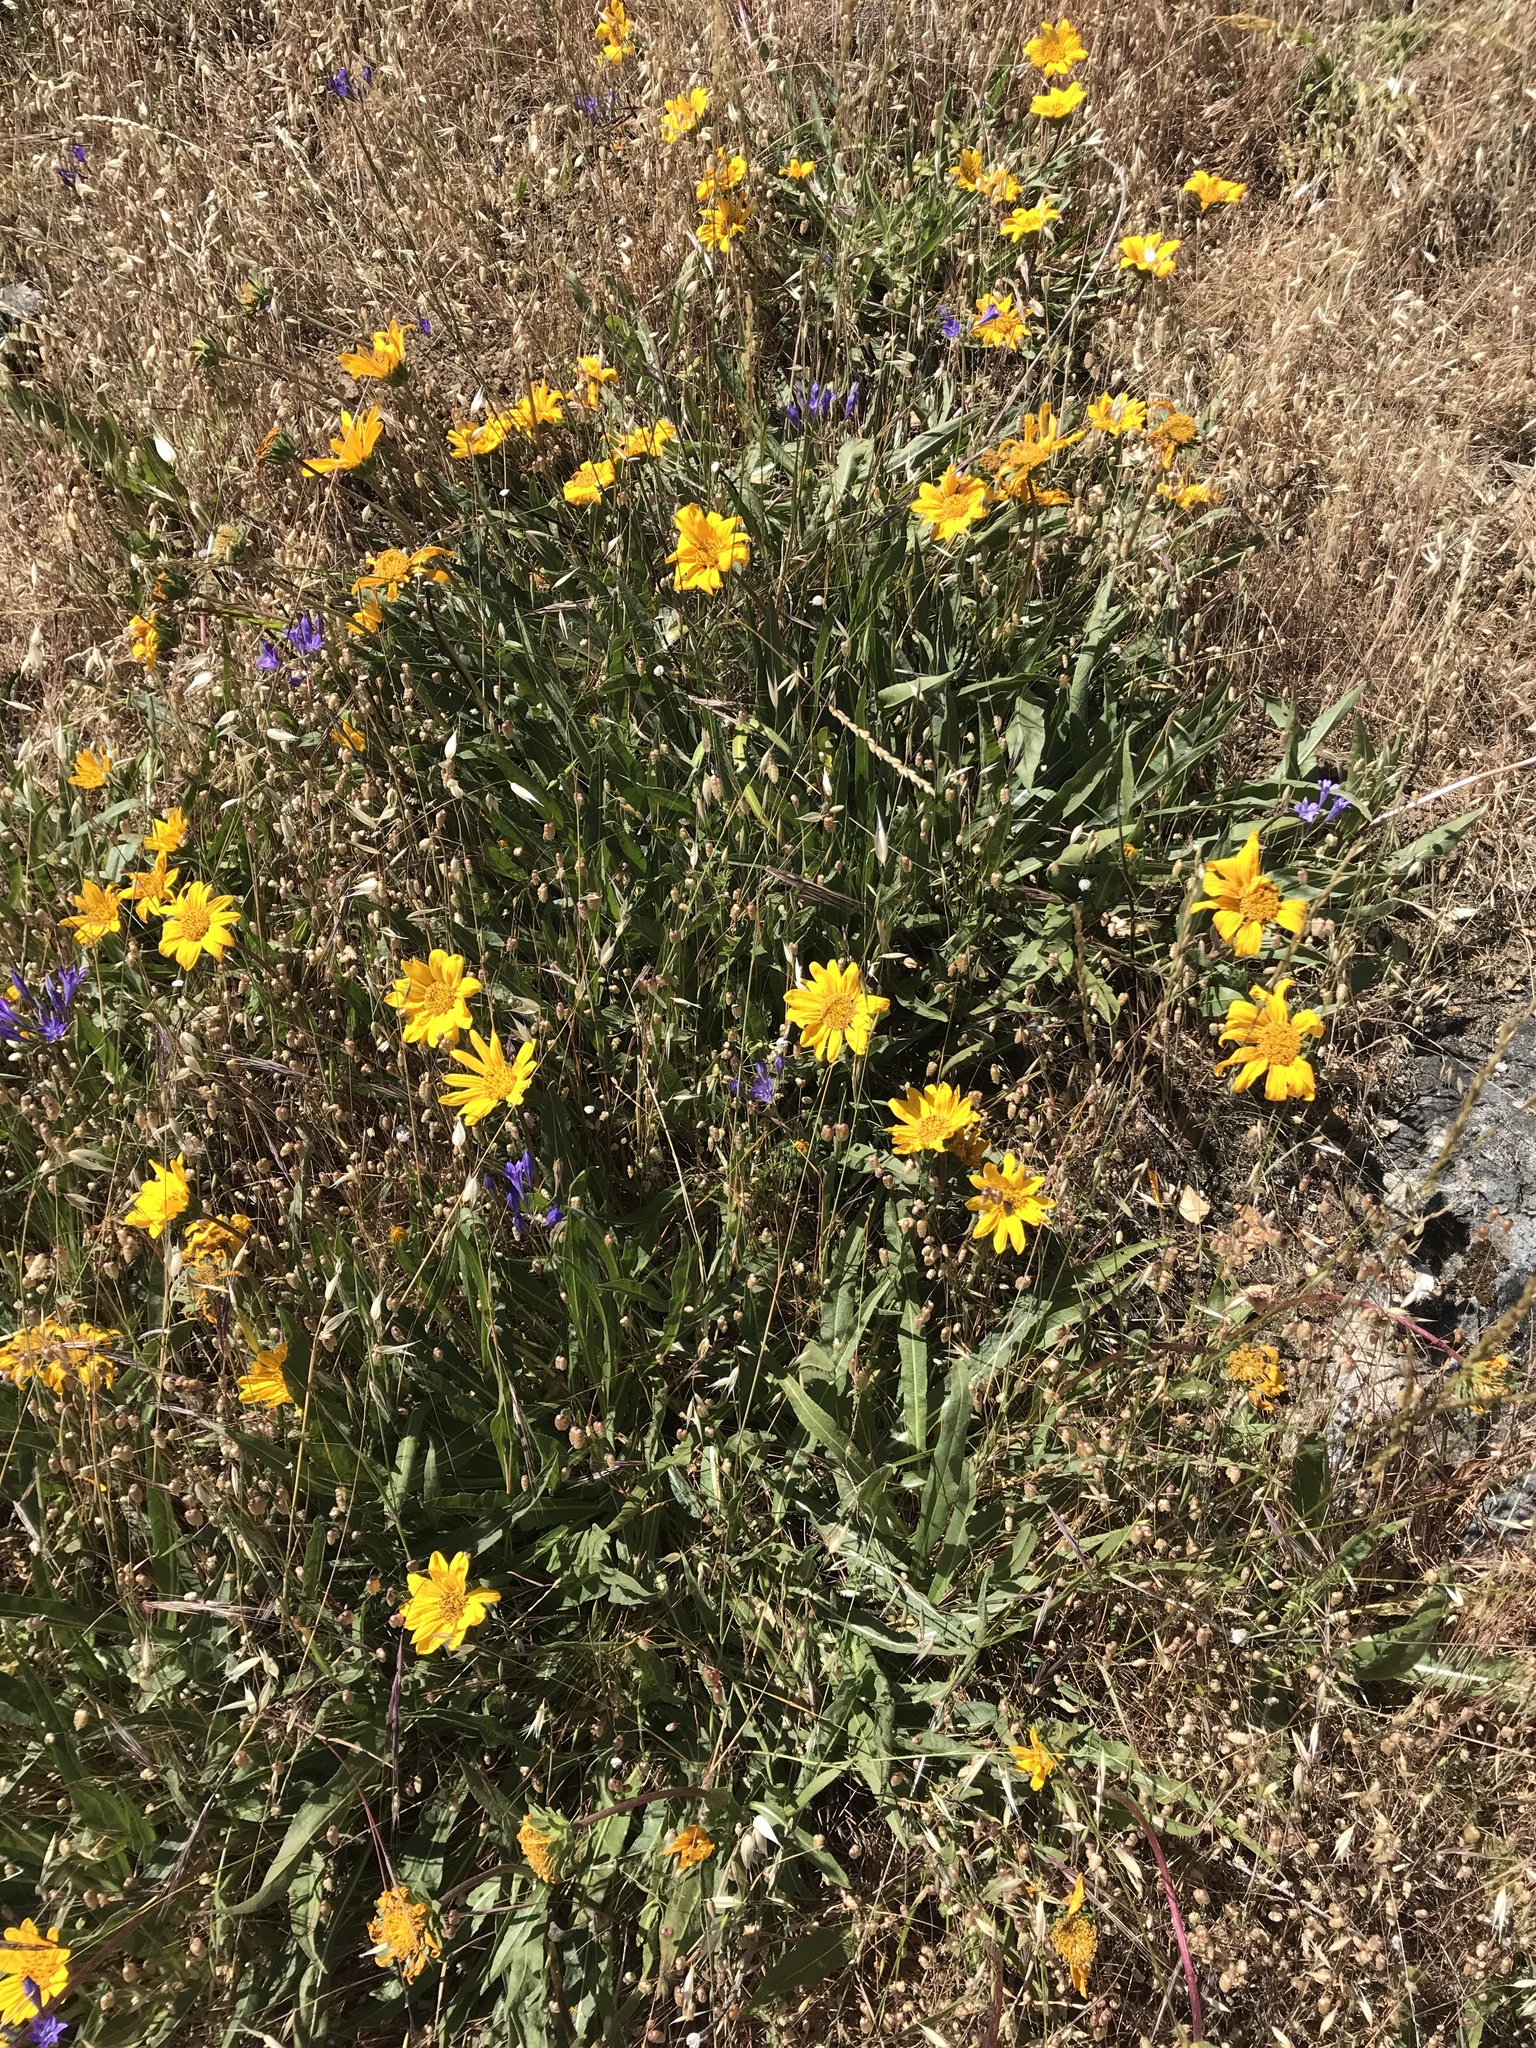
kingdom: Plantae
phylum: Tracheophyta
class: Magnoliopsida
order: Asterales
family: Asteraceae
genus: Wyethia
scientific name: Wyethia angustifolia
